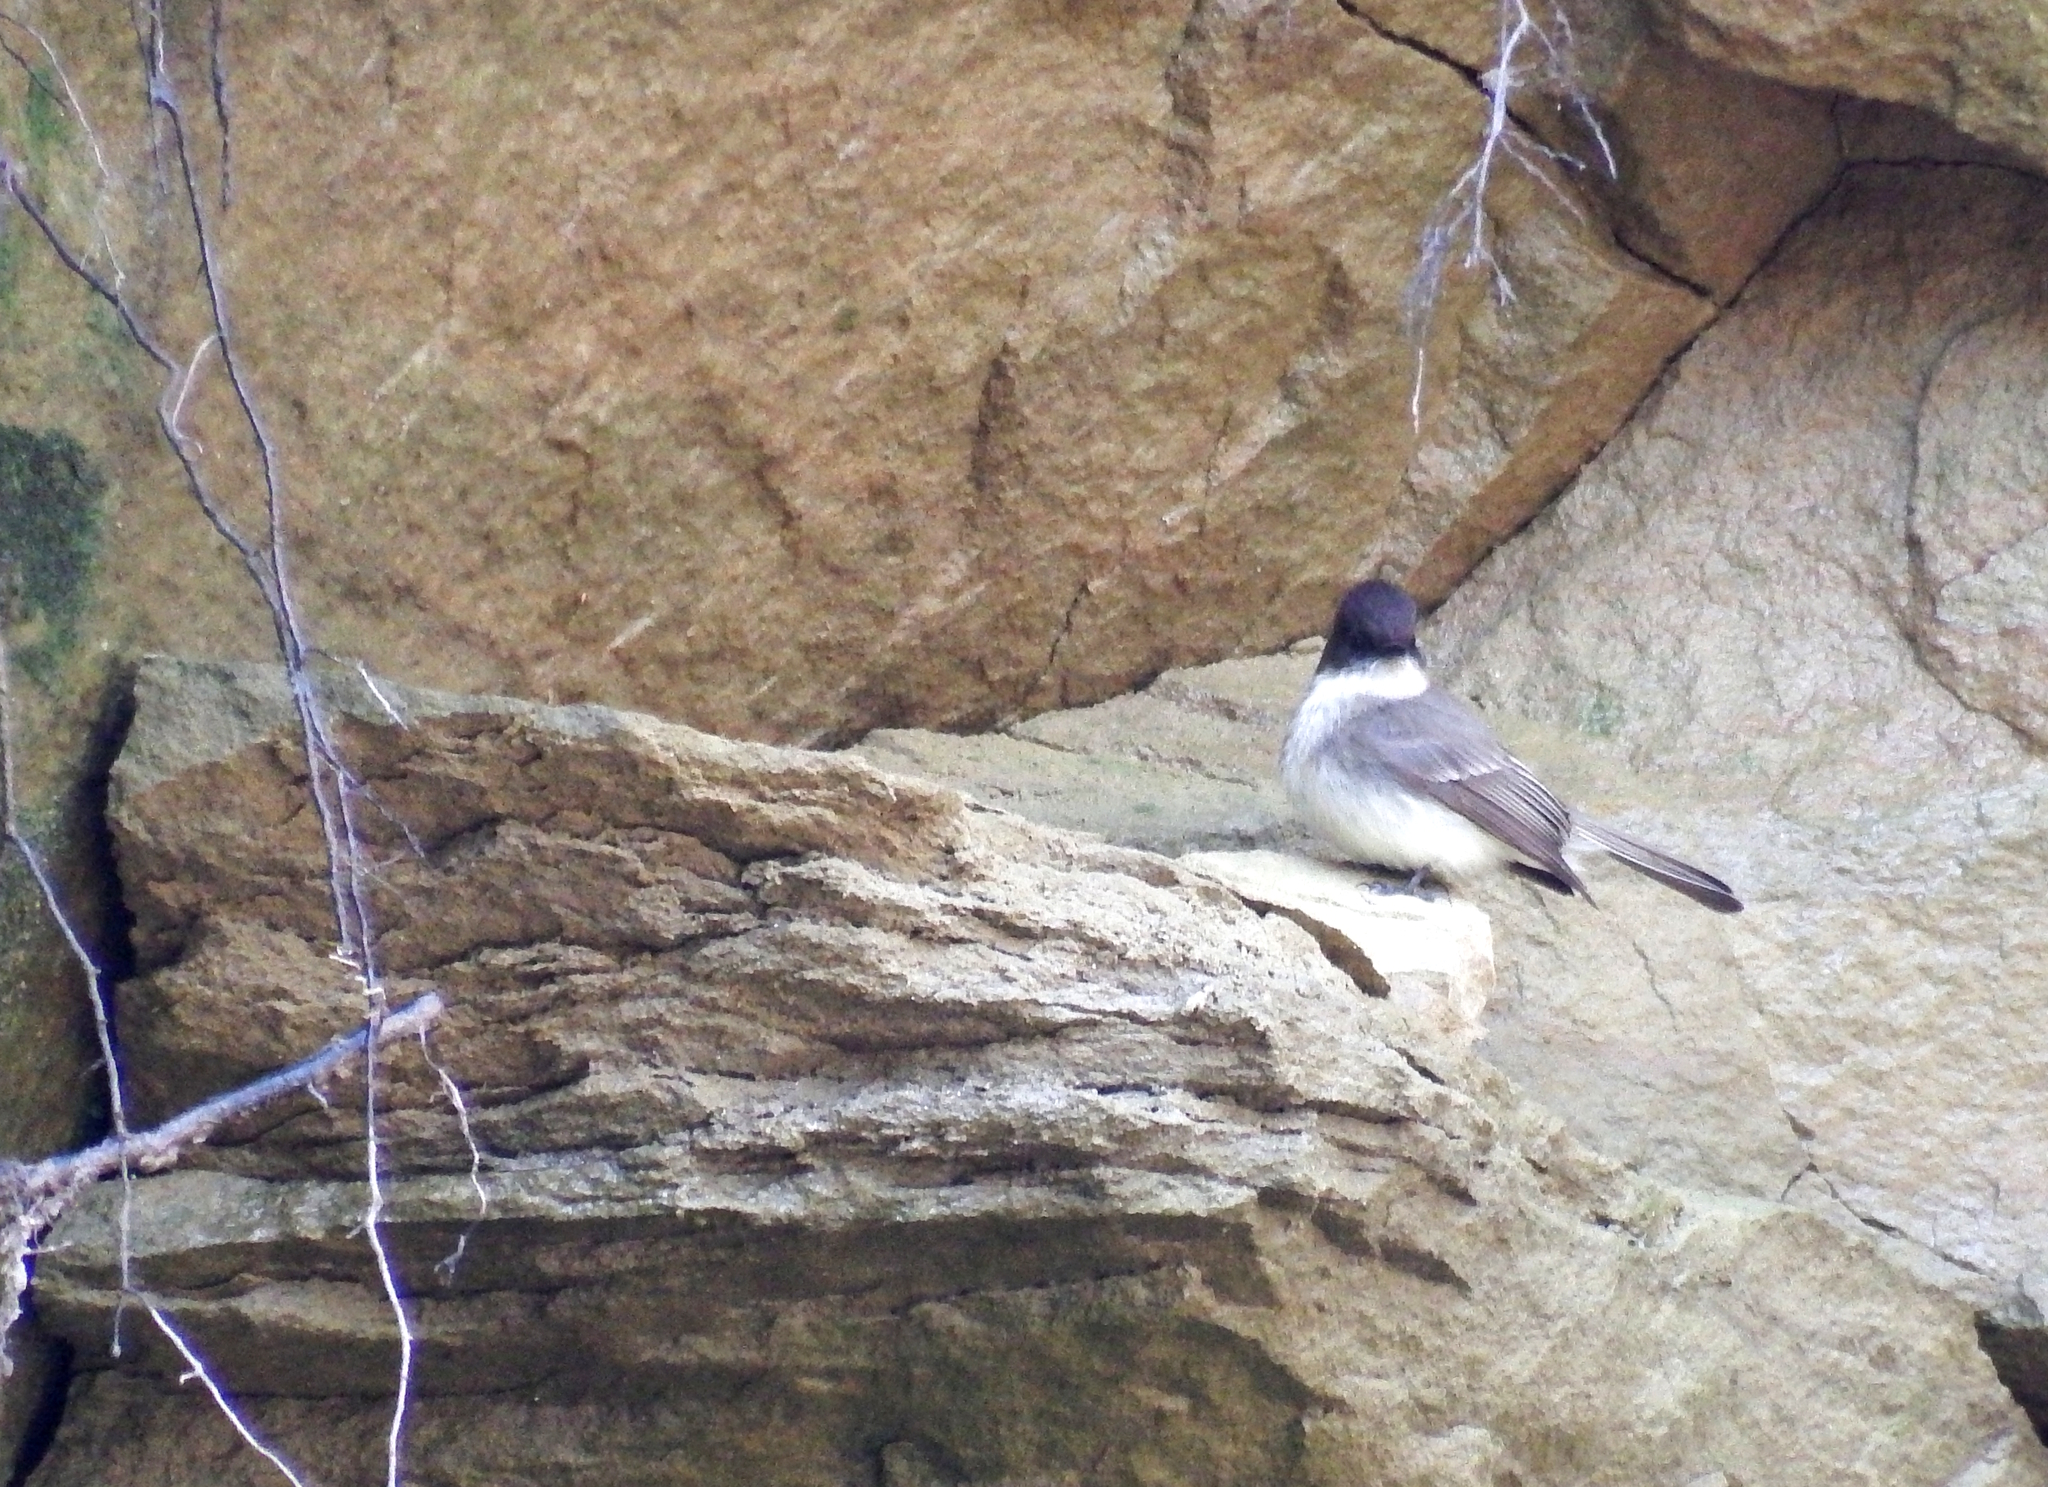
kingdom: Animalia
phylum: Chordata
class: Aves
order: Passeriformes
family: Tyrannidae
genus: Sayornis
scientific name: Sayornis phoebe
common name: Eastern phoebe
